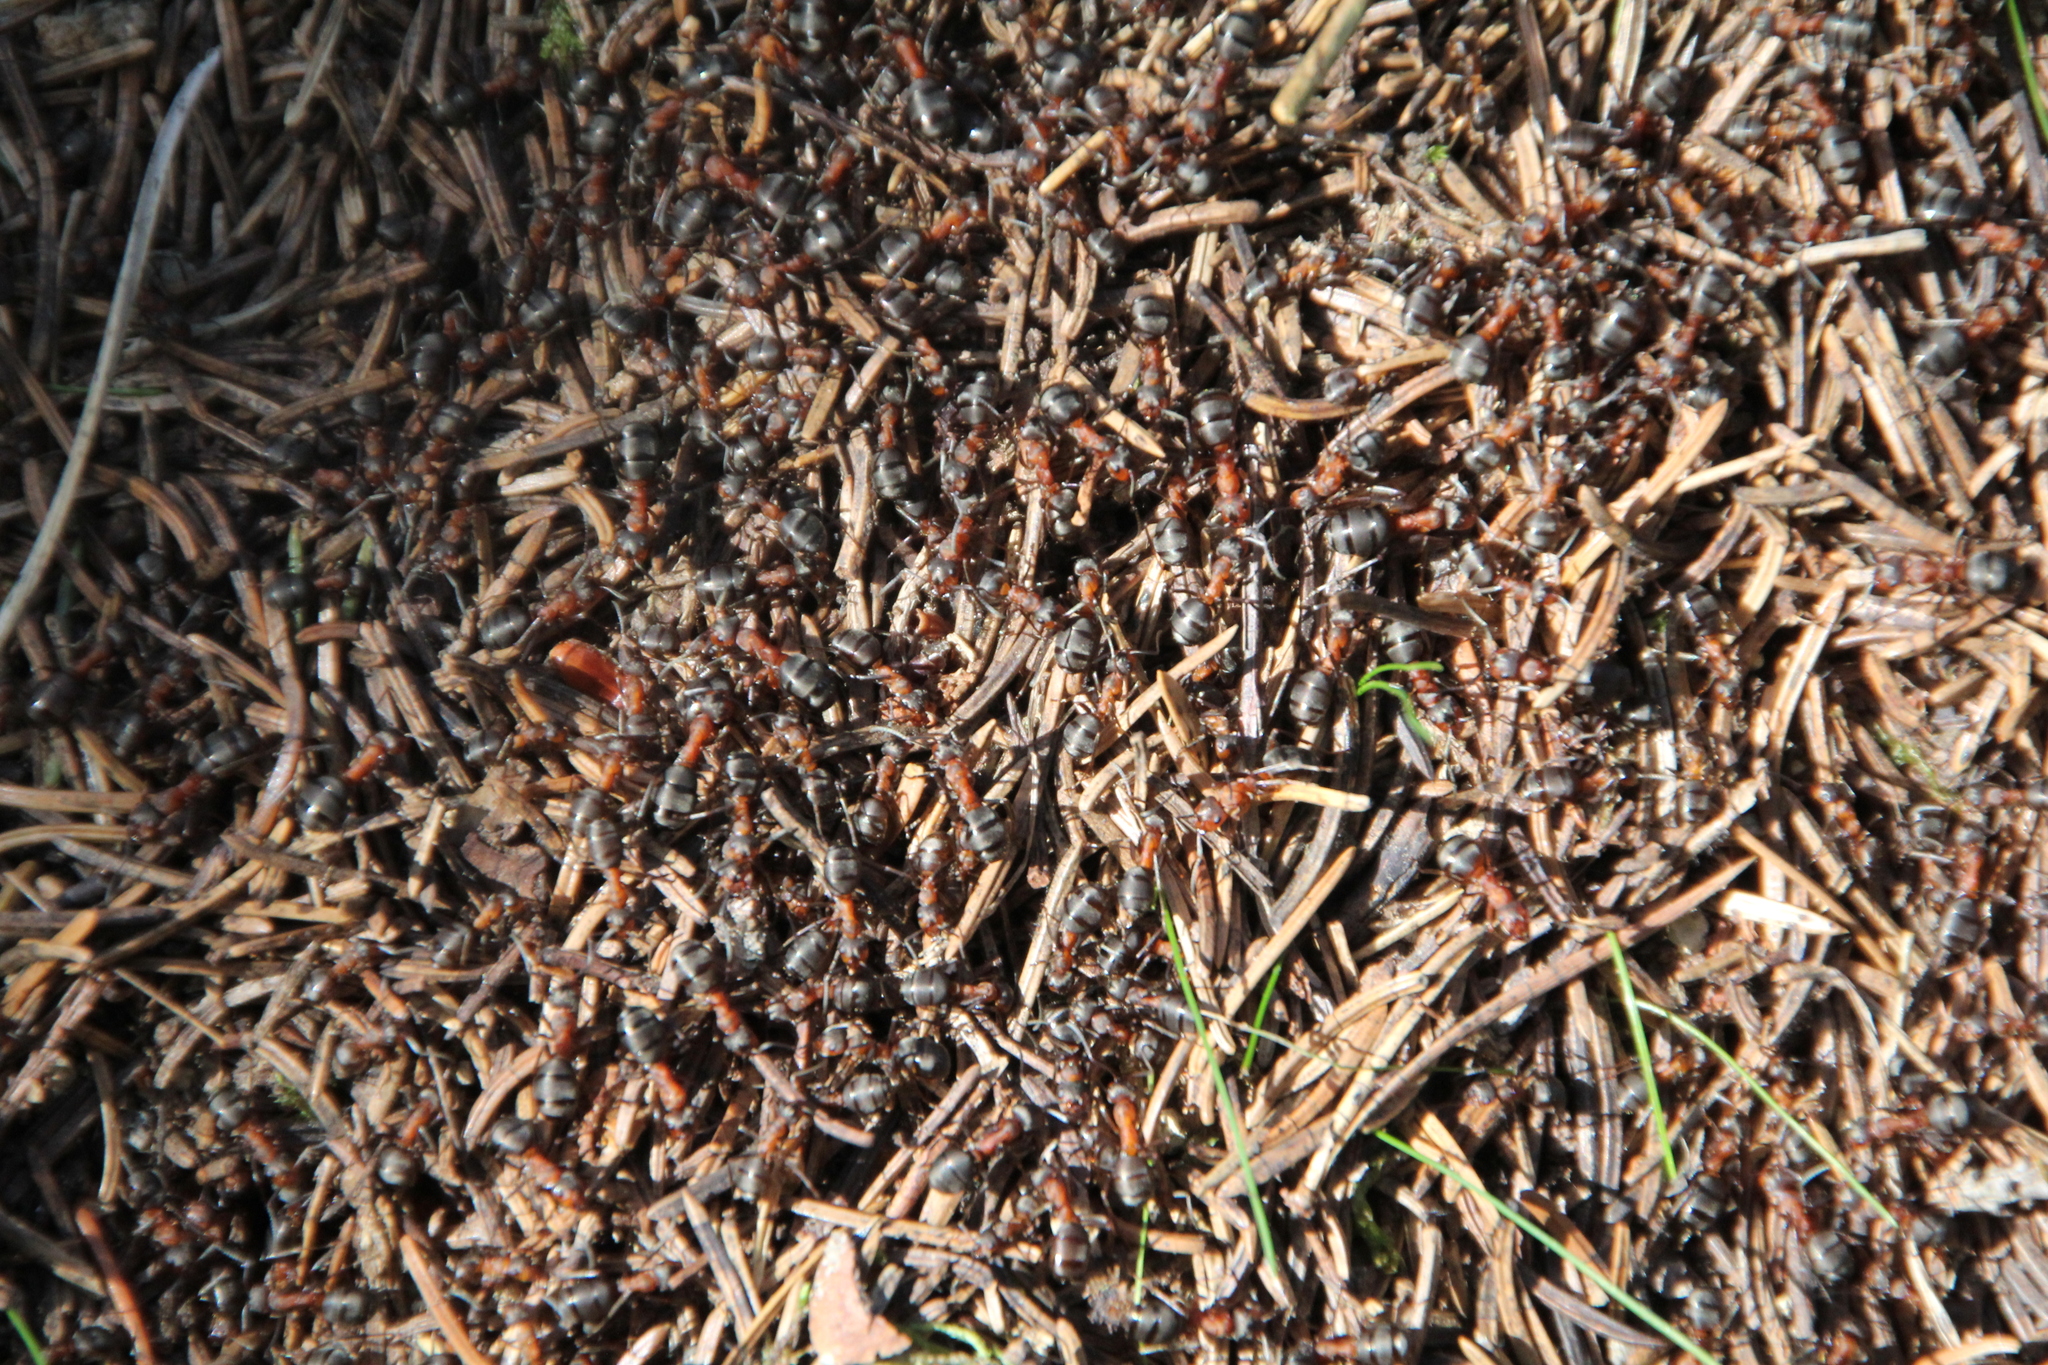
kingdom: Animalia
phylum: Arthropoda
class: Insecta
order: Hymenoptera
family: Formicidae
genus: Formica
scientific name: Formica
